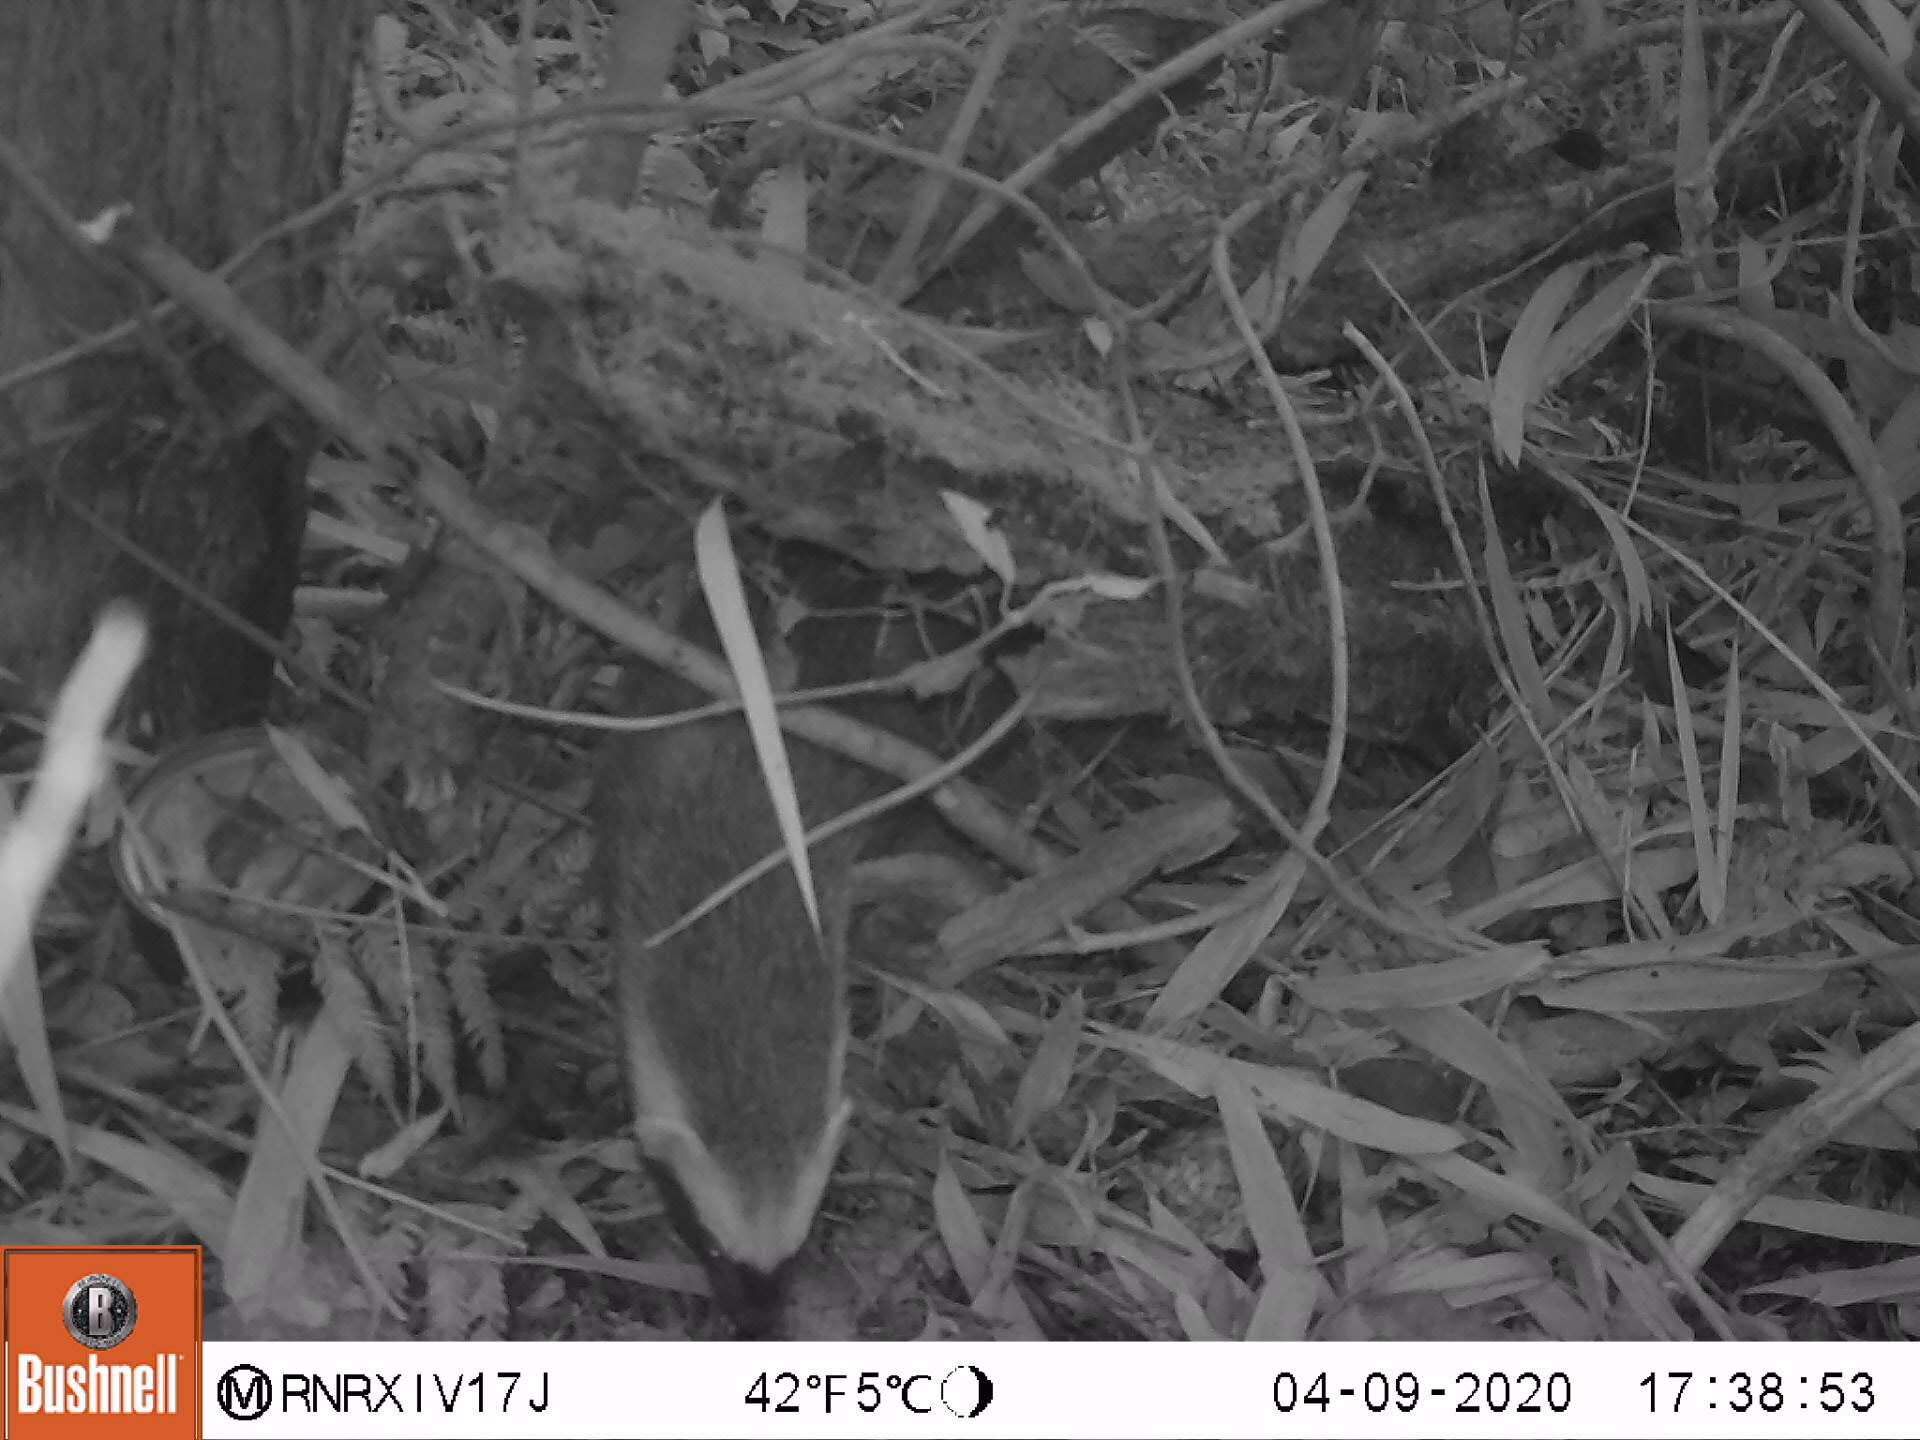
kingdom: Animalia
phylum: Chordata
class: Mammalia
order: Carnivora
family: Mustelidae
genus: Galictis
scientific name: Galictis cuja
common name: Lesser grison
